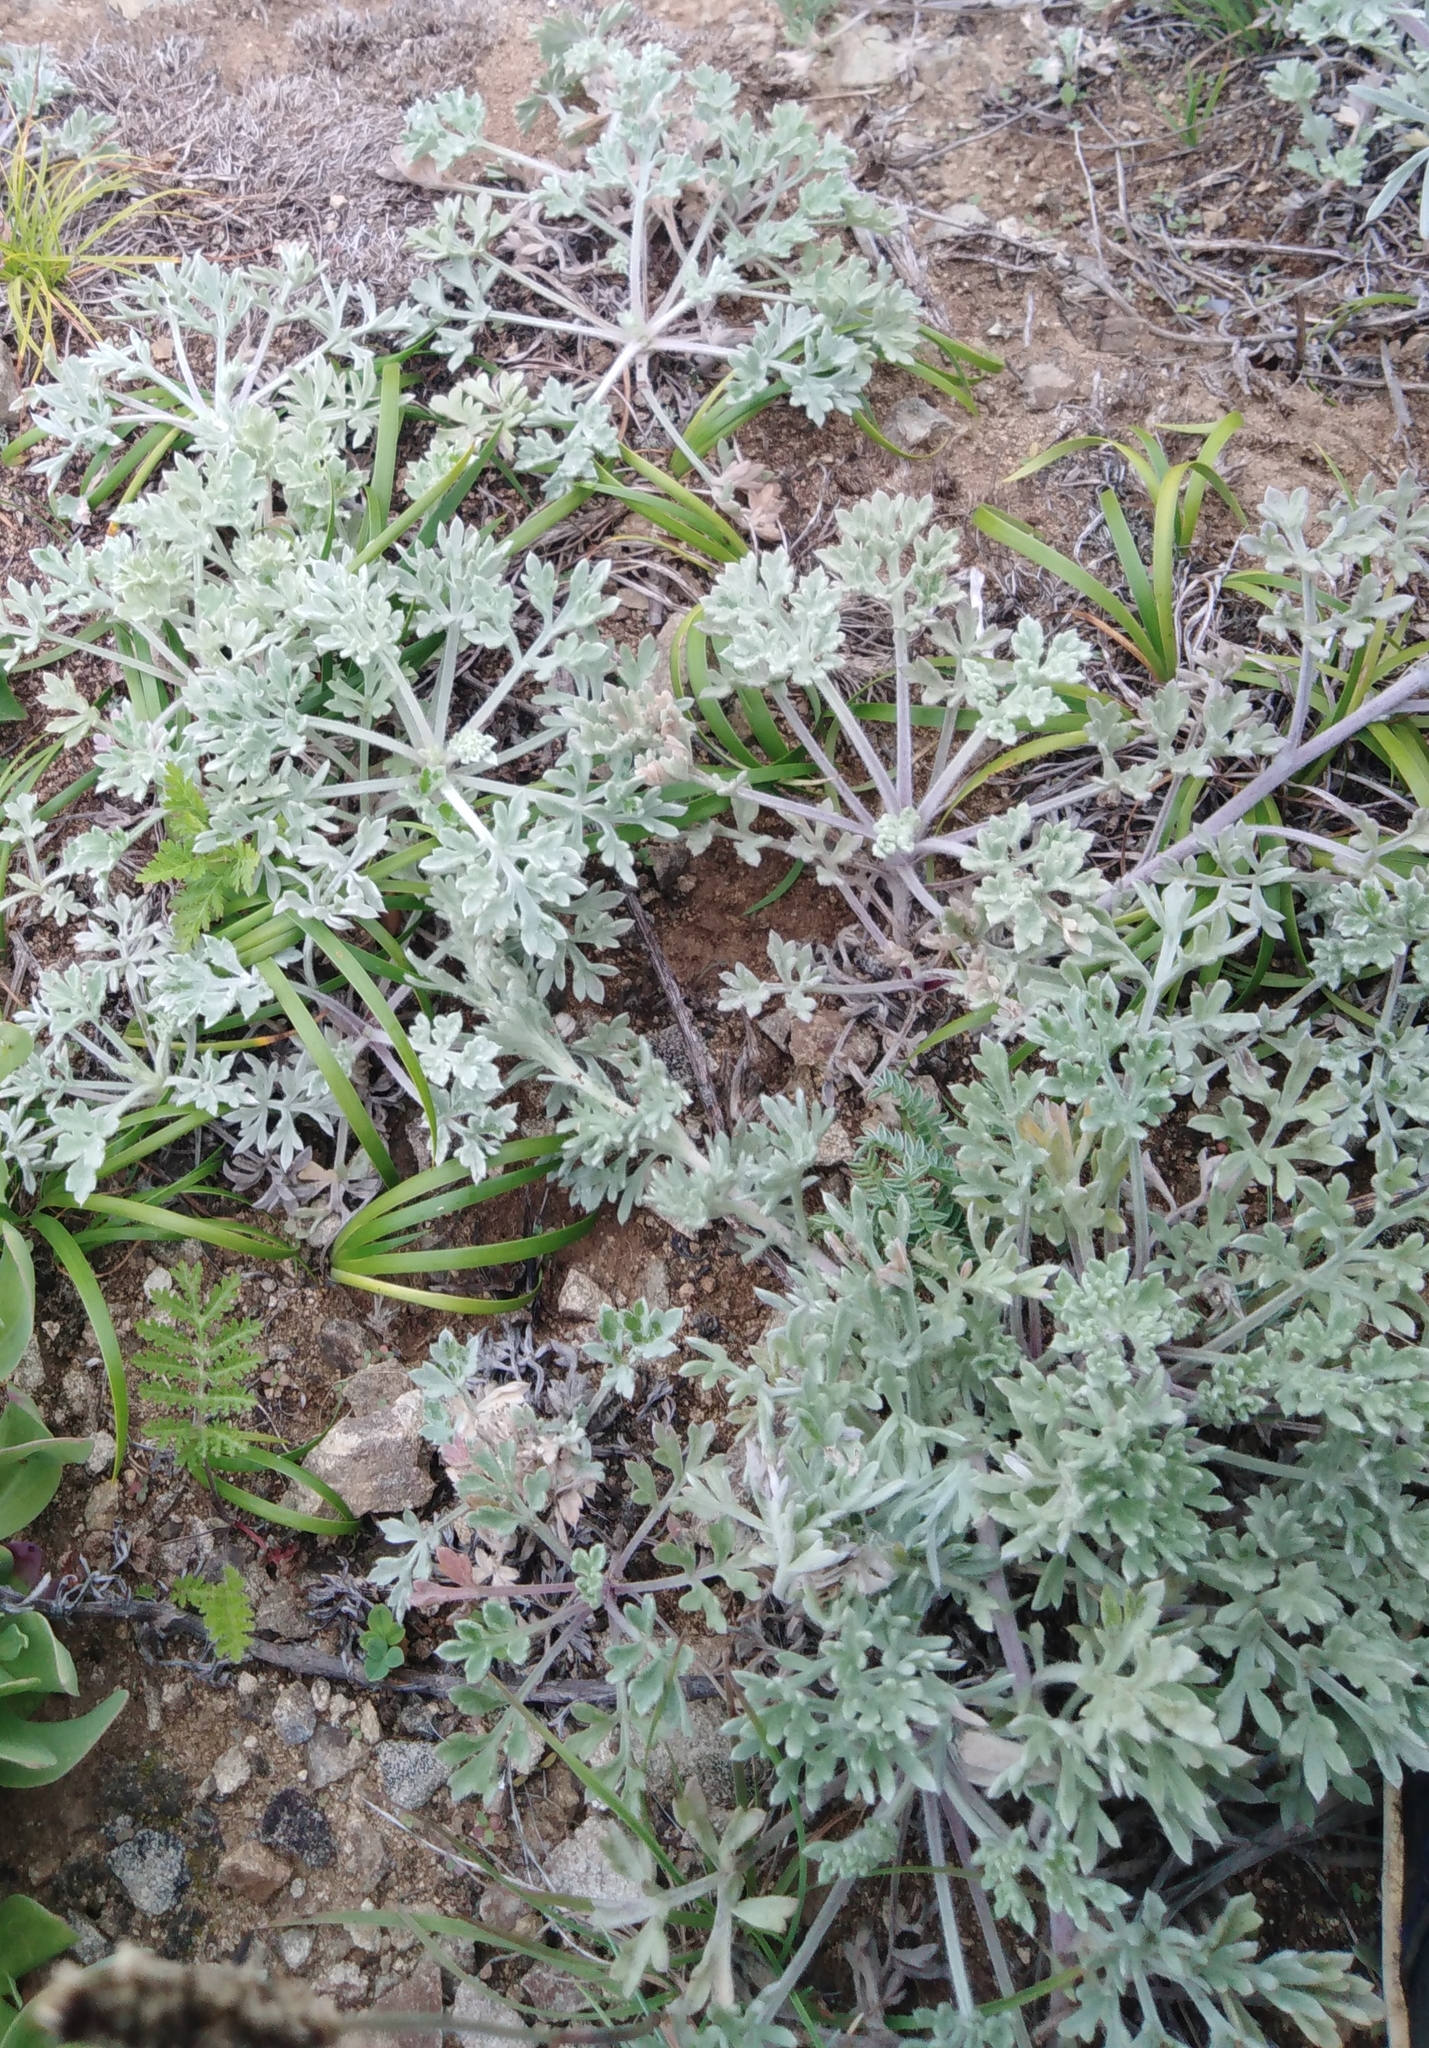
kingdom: Plantae
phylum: Tracheophyta
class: Magnoliopsida
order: Asterales
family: Asteraceae
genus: Artemisia
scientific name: Artemisia pannosa
